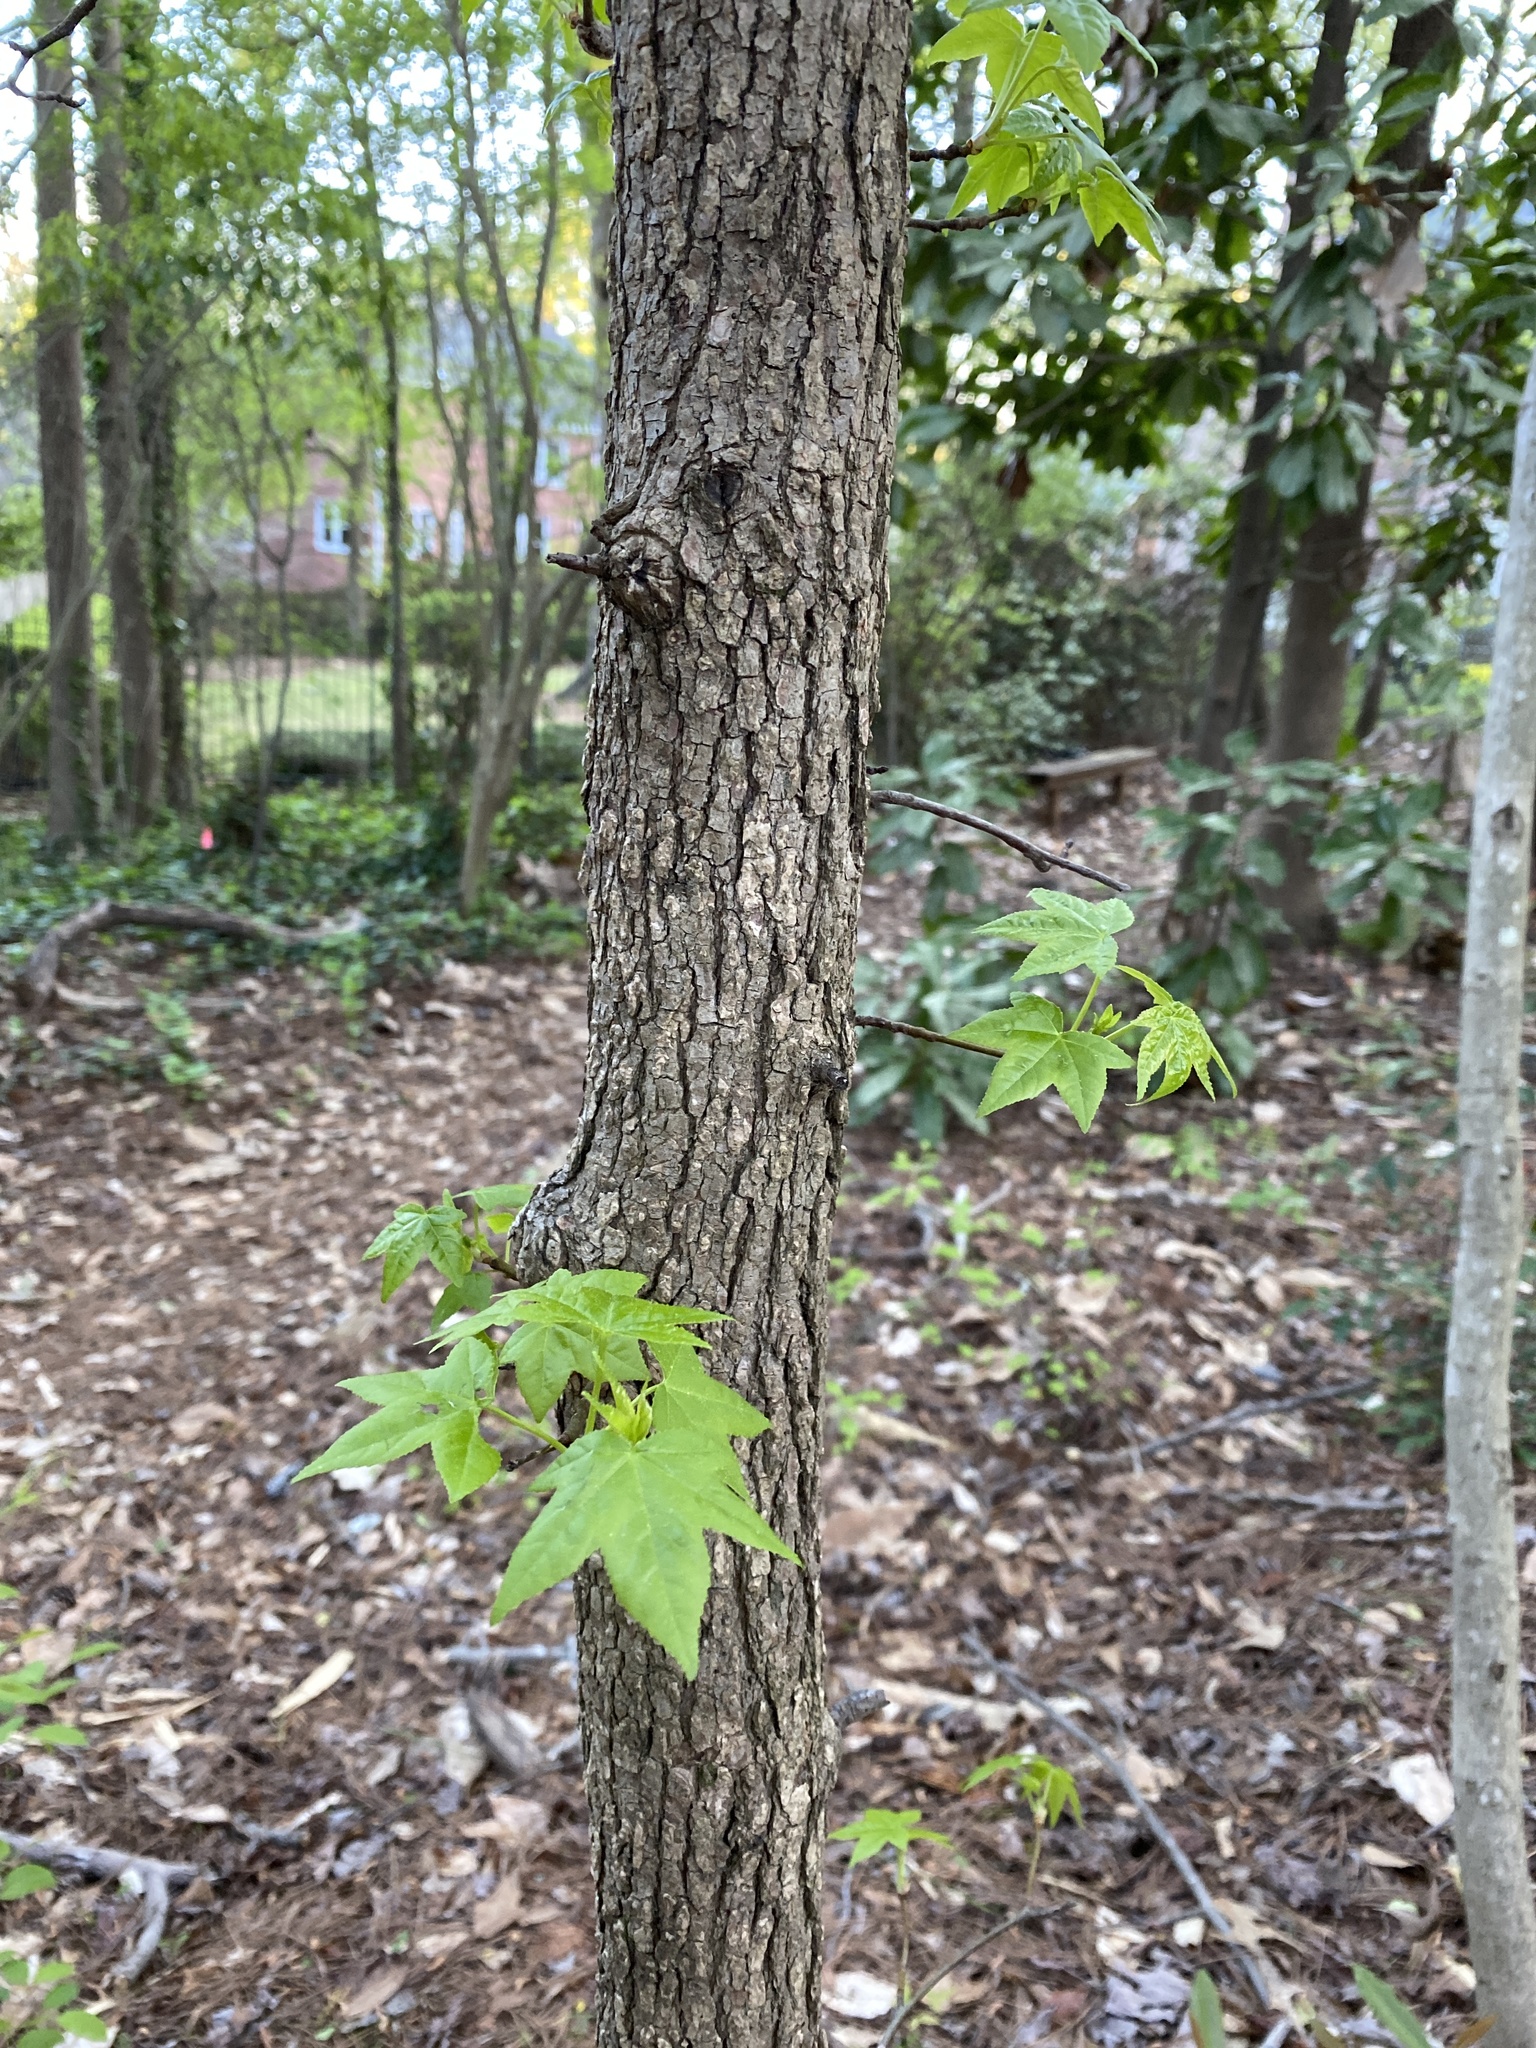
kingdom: Plantae
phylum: Tracheophyta
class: Magnoliopsida
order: Saxifragales
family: Altingiaceae
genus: Liquidambar
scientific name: Liquidambar styraciflua
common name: Sweet gum
